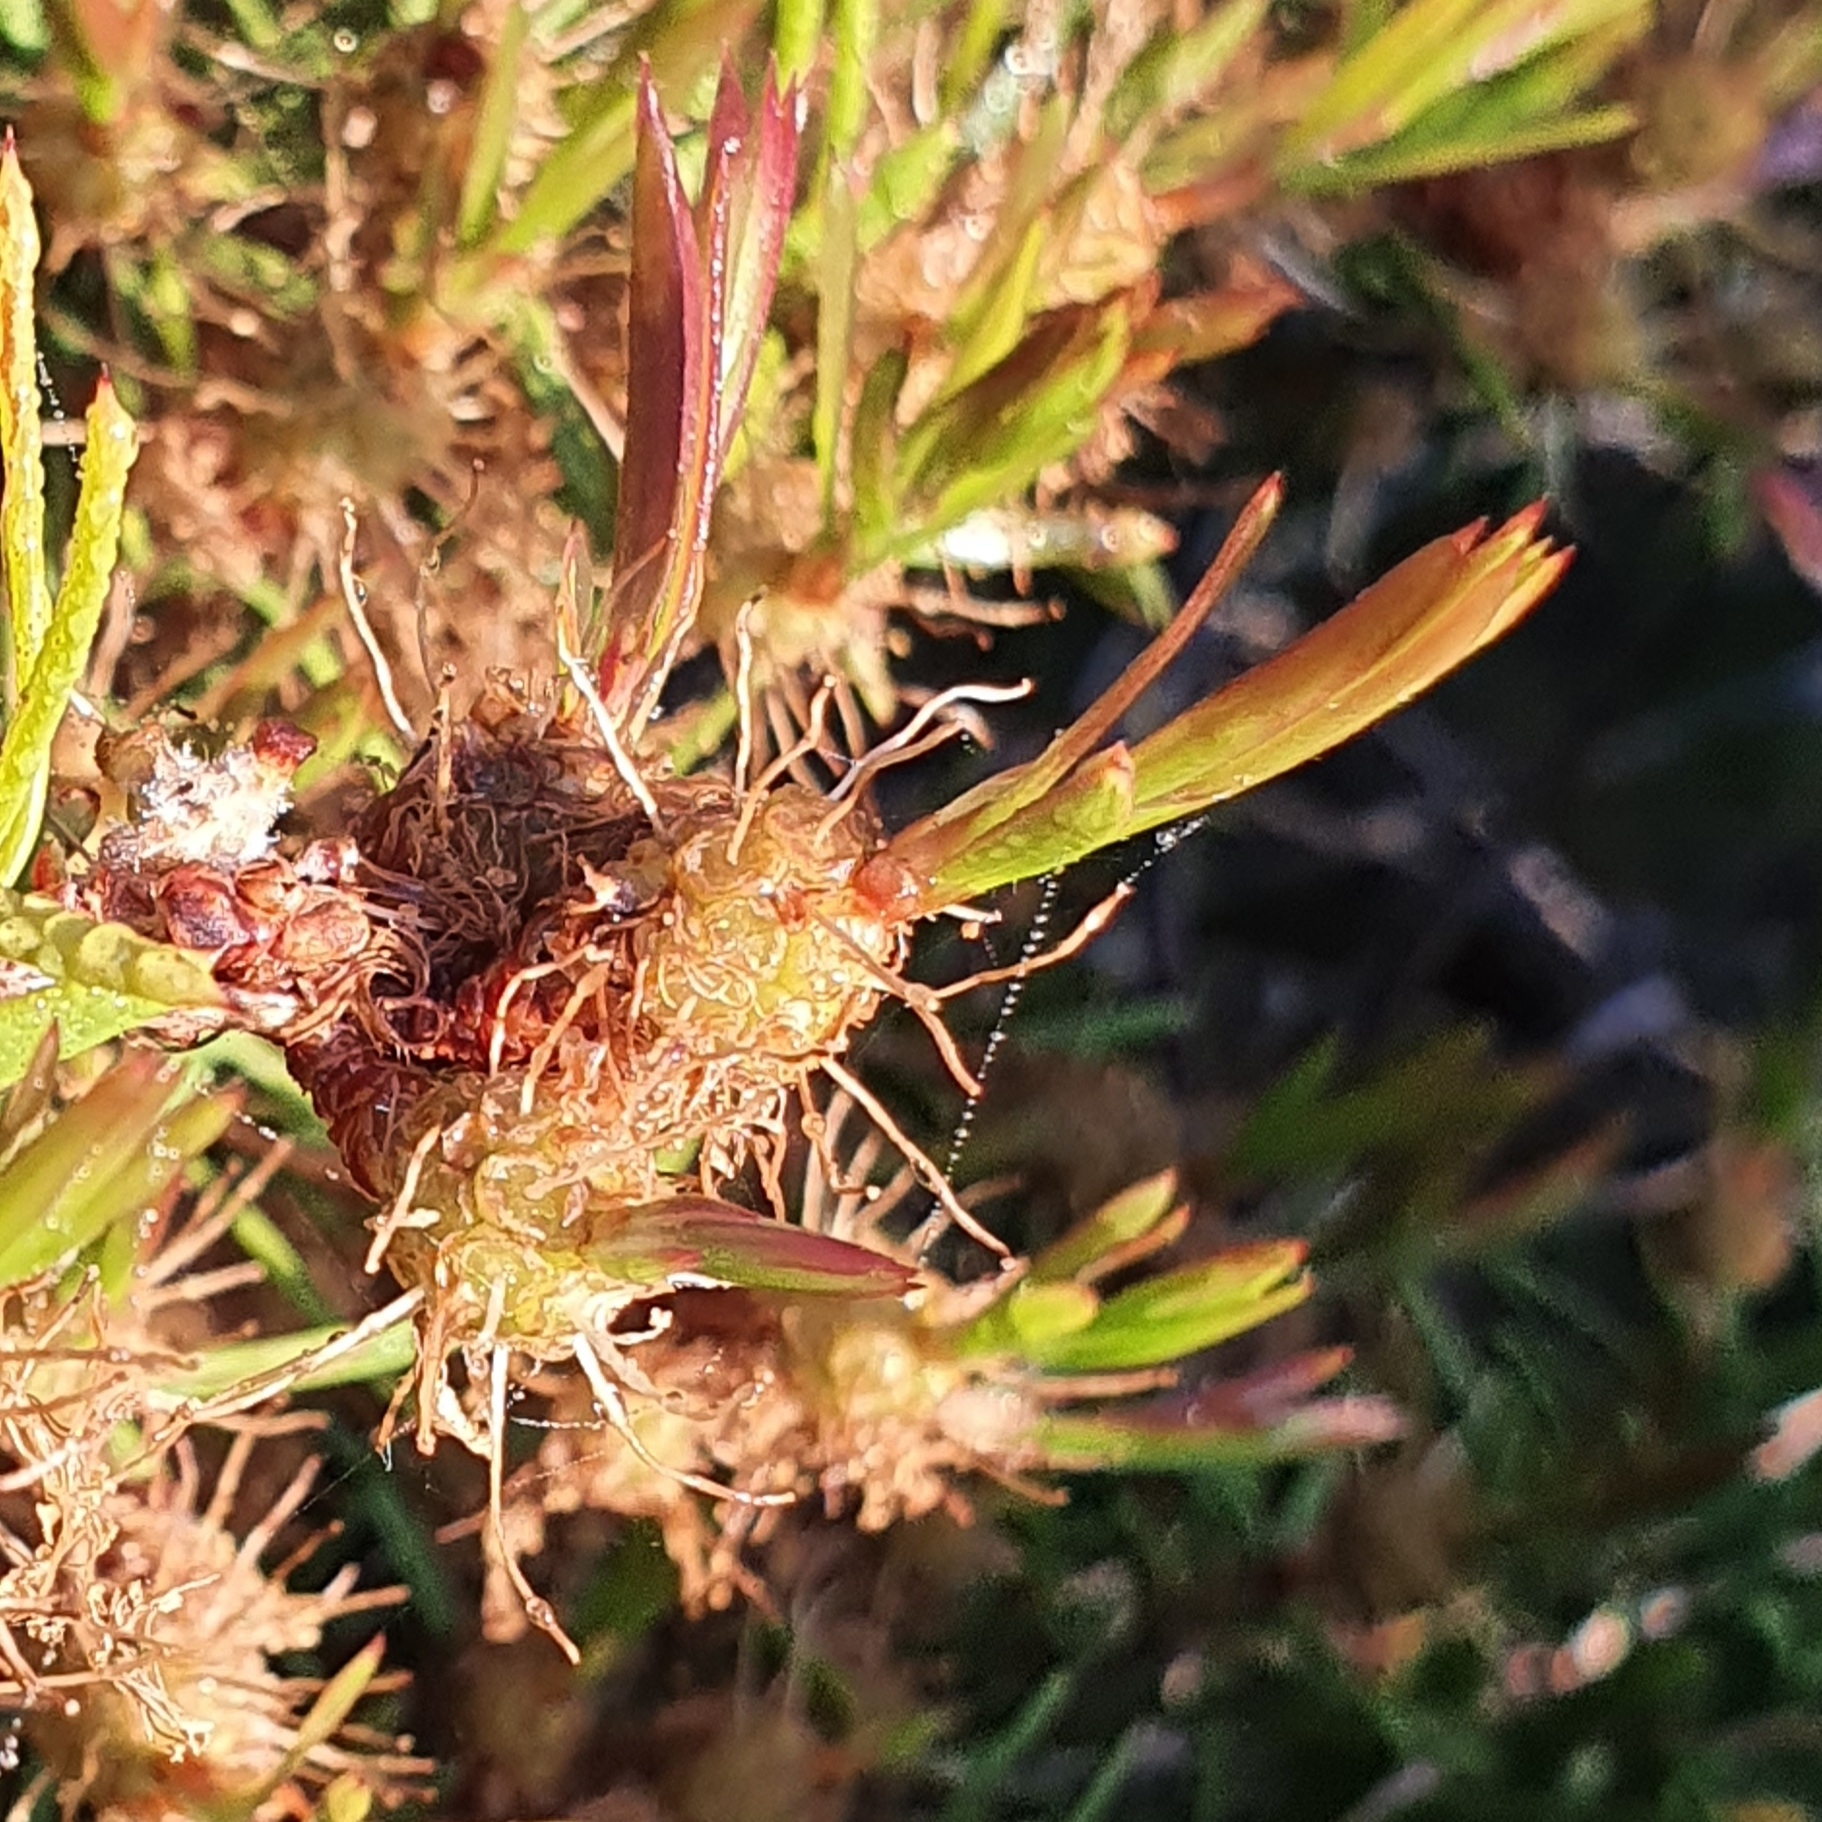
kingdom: Plantae
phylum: Tracheophyta
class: Magnoliopsida
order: Myrtales
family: Myrtaceae
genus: Melaleuca
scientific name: Melaleuca nodosa
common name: Prickly-leaf paperbark
